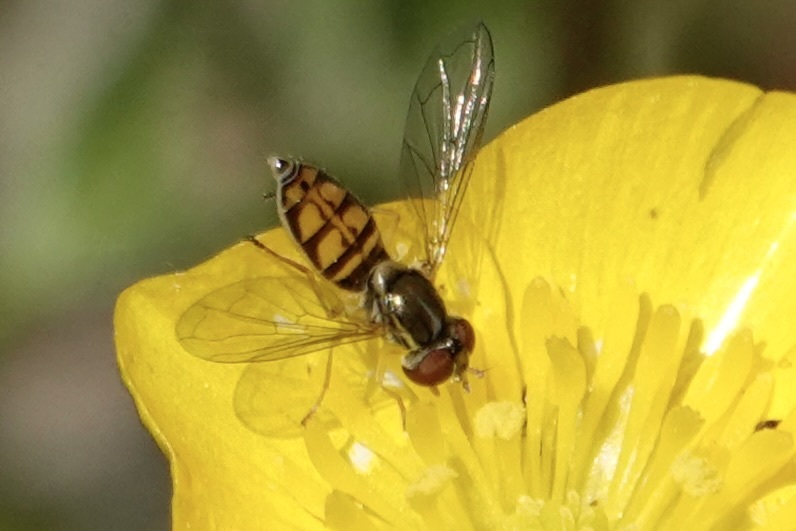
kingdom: Animalia
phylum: Arthropoda
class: Insecta
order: Diptera
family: Syrphidae
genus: Toxomerus
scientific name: Toxomerus marginatus
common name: Syrphid fly
